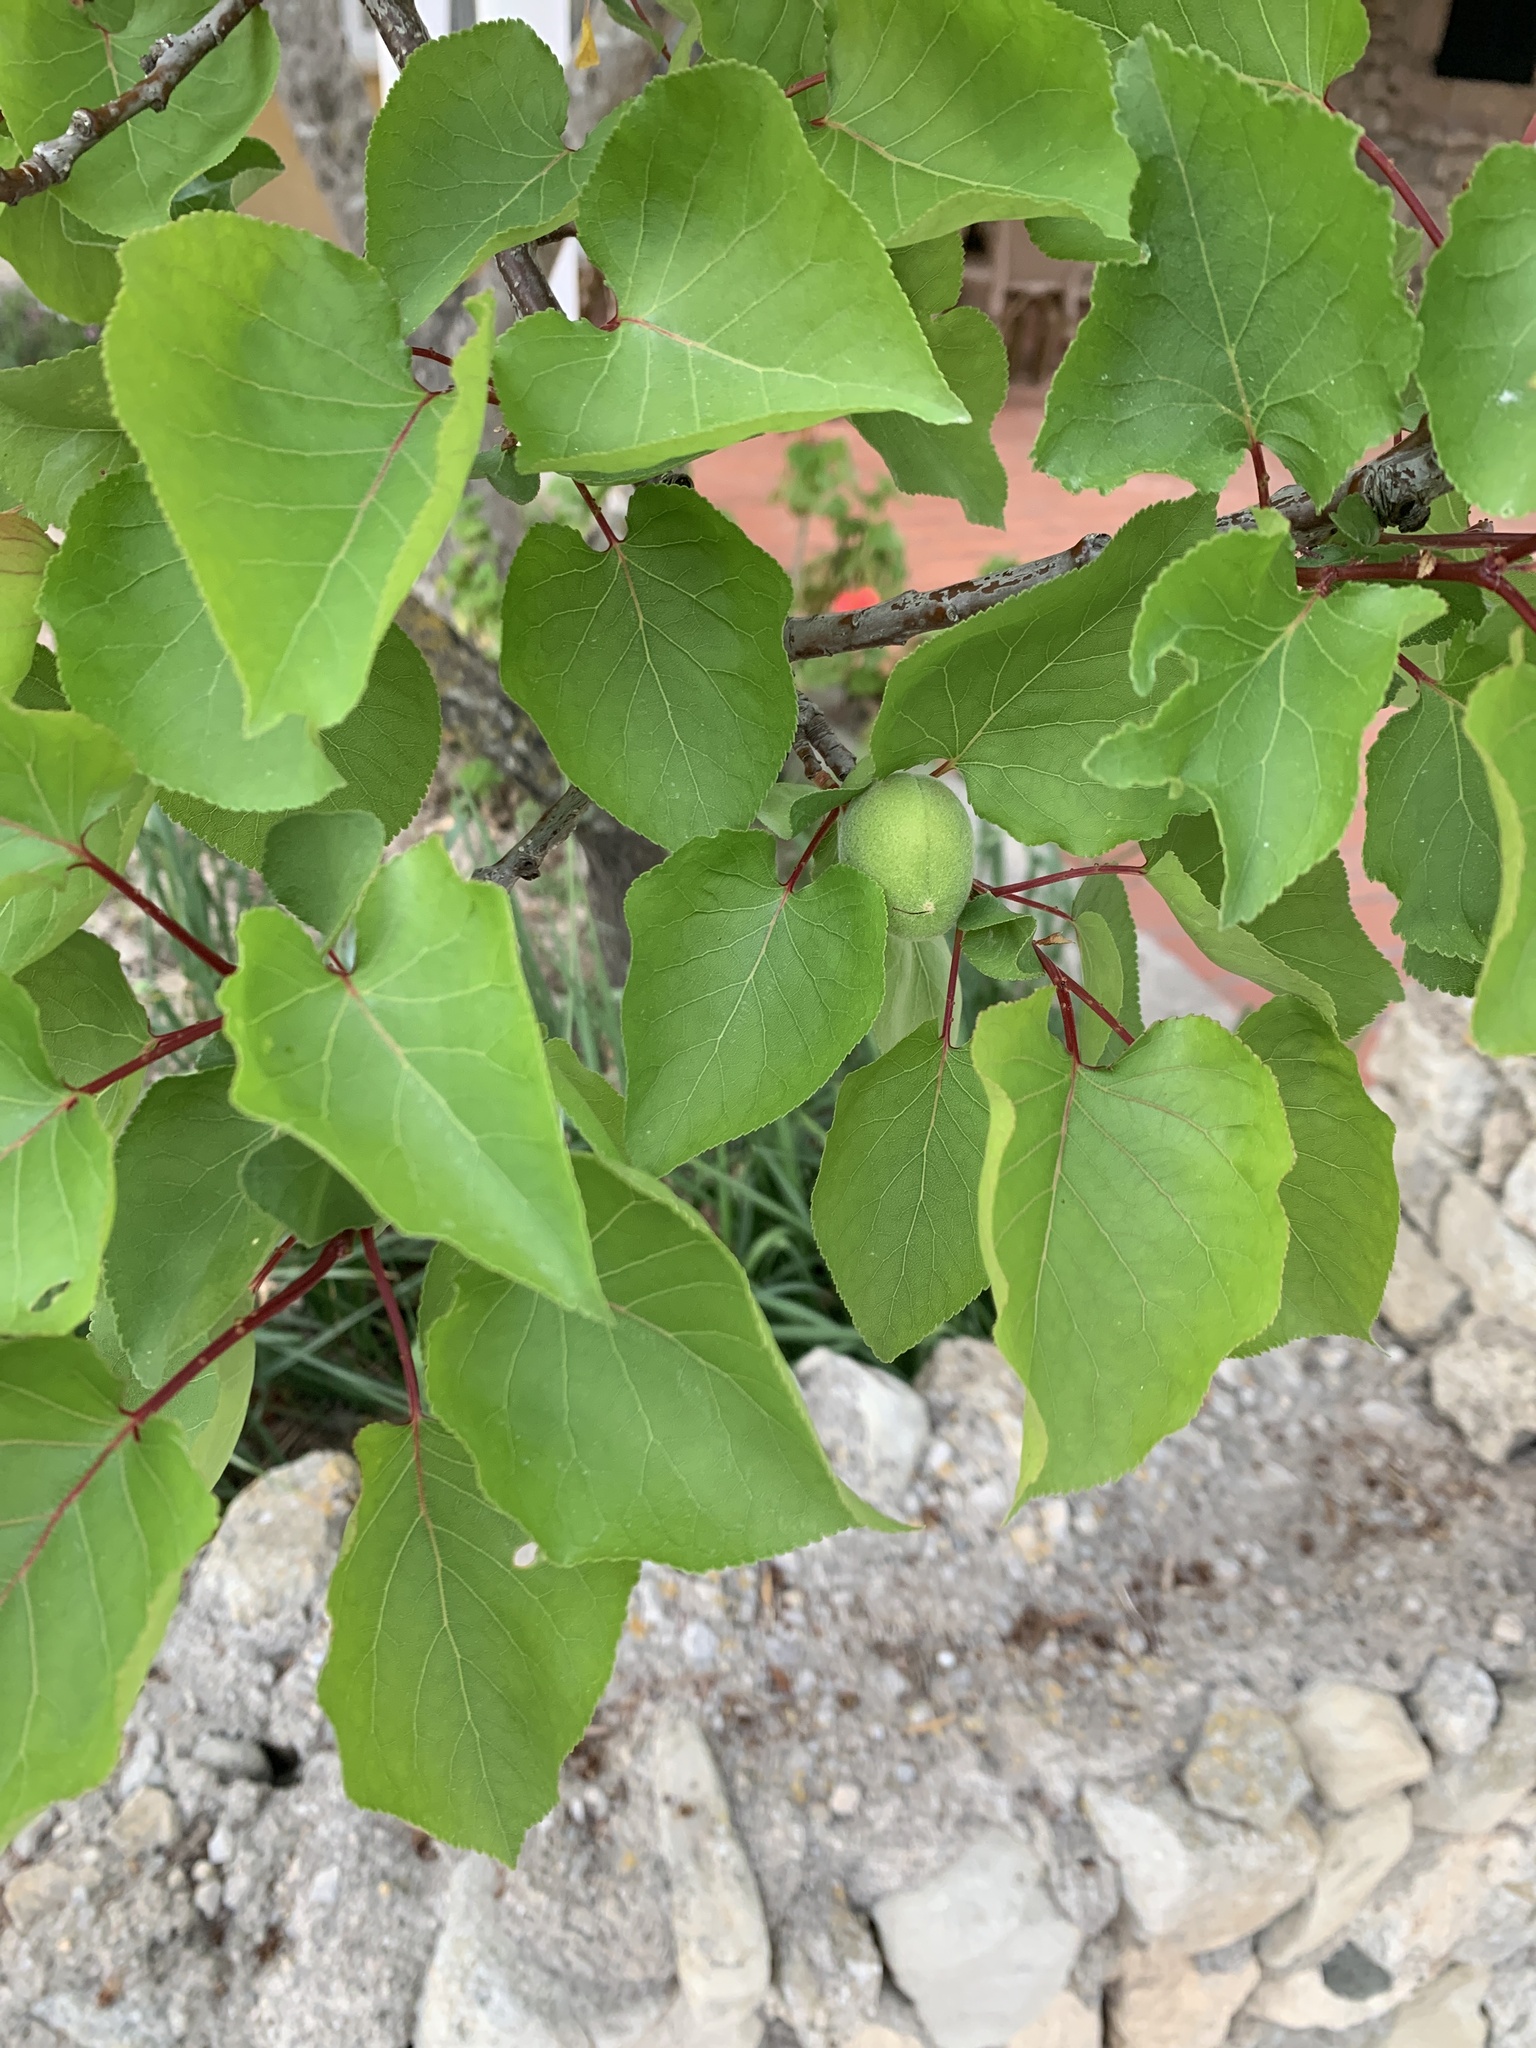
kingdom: Plantae
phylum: Tracheophyta
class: Magnoliopsida
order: Rosales
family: Rosaceae
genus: Prunus
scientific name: Prunus armeniaca
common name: Apricot
